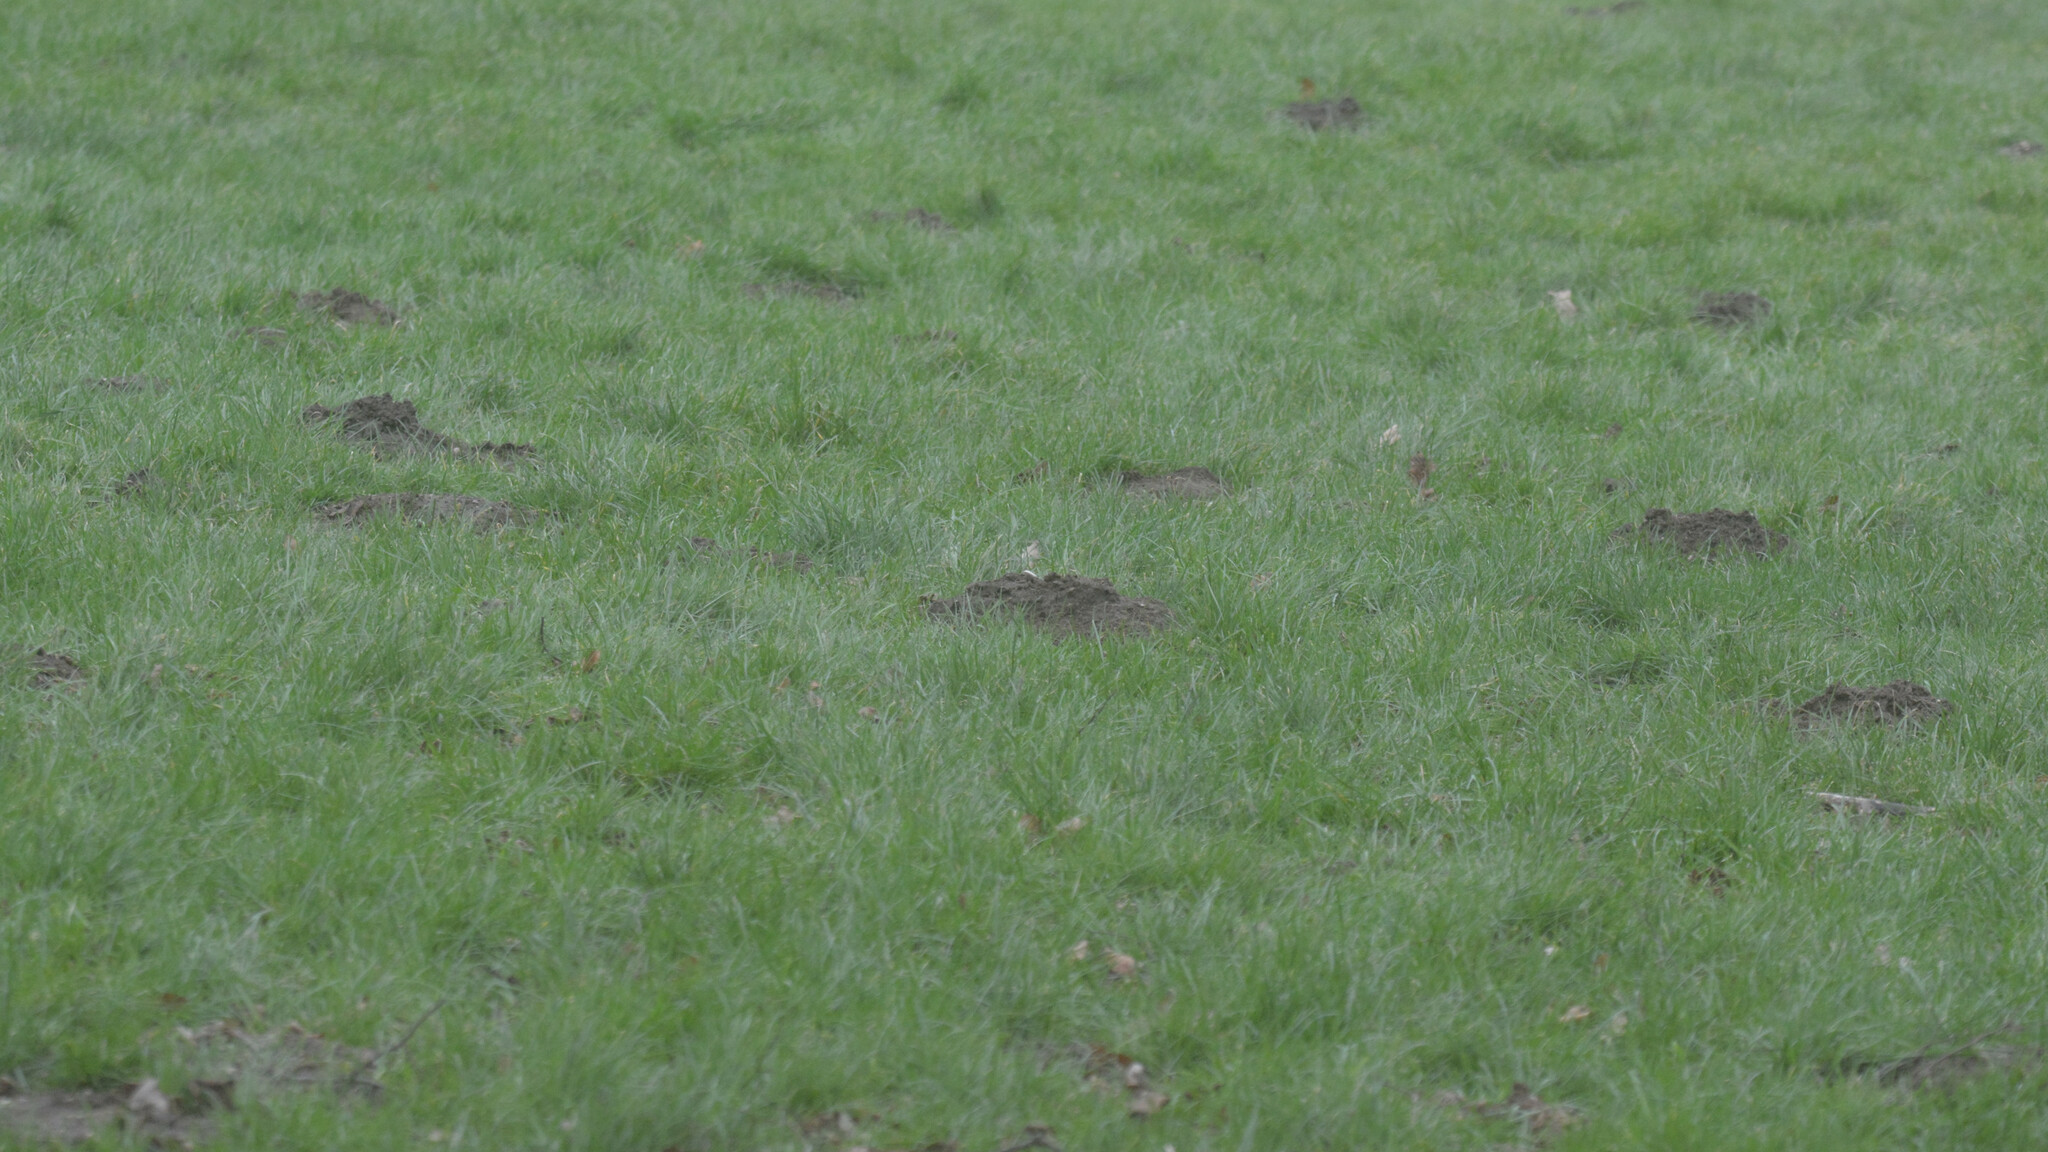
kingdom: Animalia
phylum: Chordata
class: Mammalia
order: Soricomorpha
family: Talpidae
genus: Talpa
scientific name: Talpa europaea
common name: European mole
